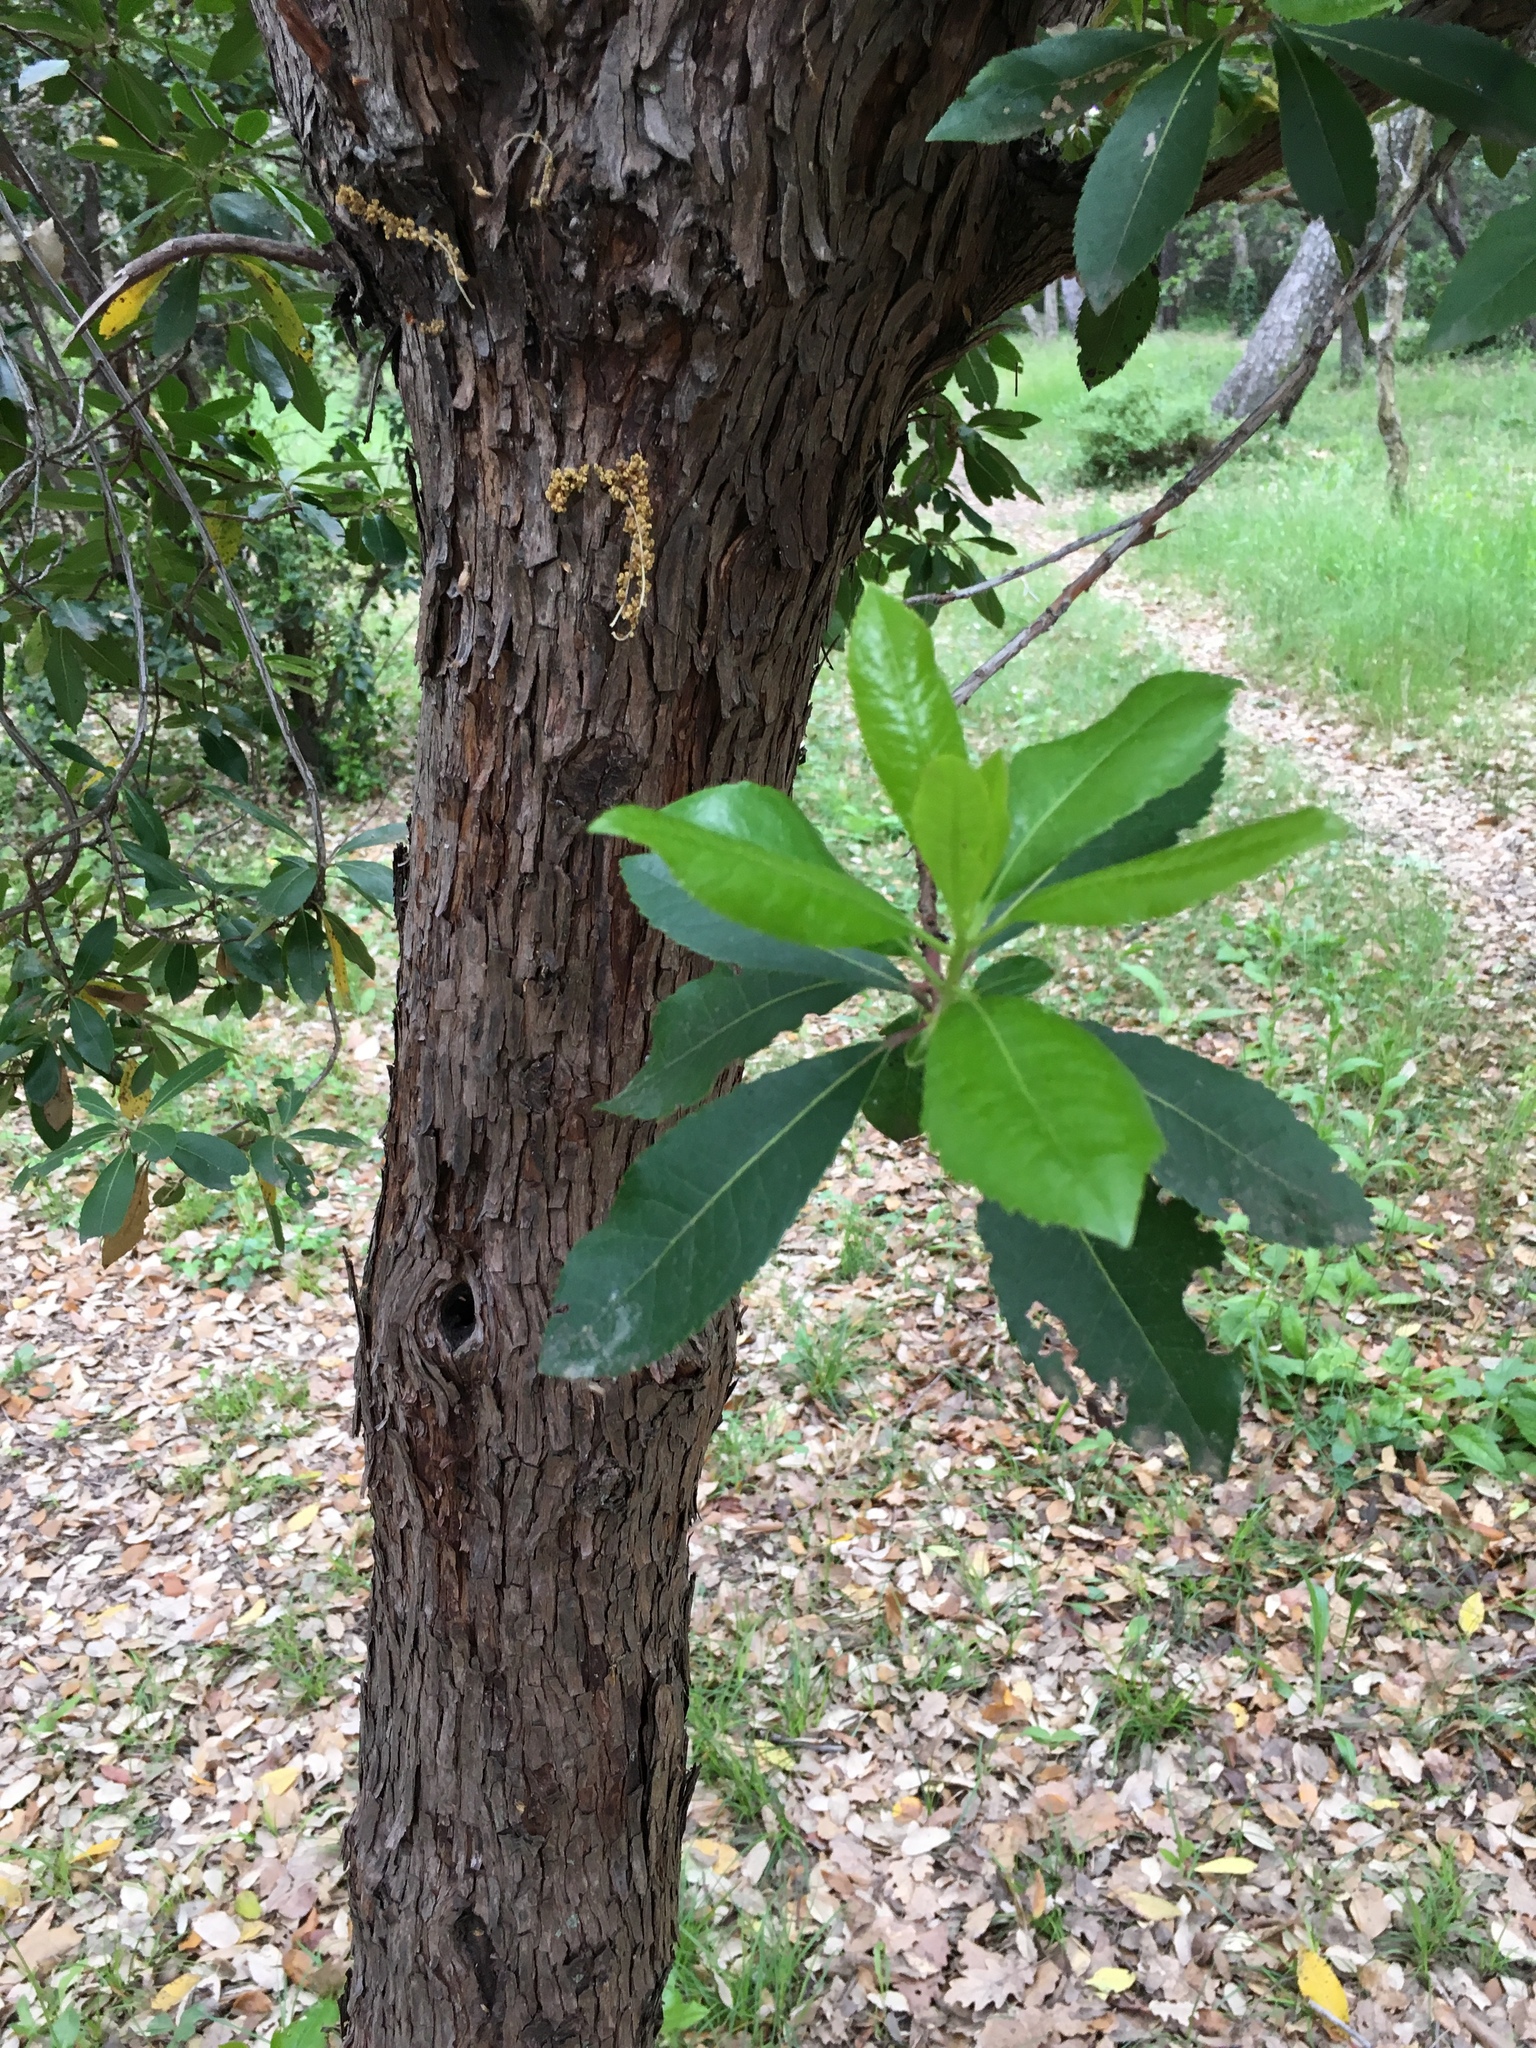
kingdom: Plantae
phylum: Tracheophyta
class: Magnoliopsida
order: Ericales
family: Ericaceae
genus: Arbutus
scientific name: Arbutus unedo
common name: Strawberry-tree
